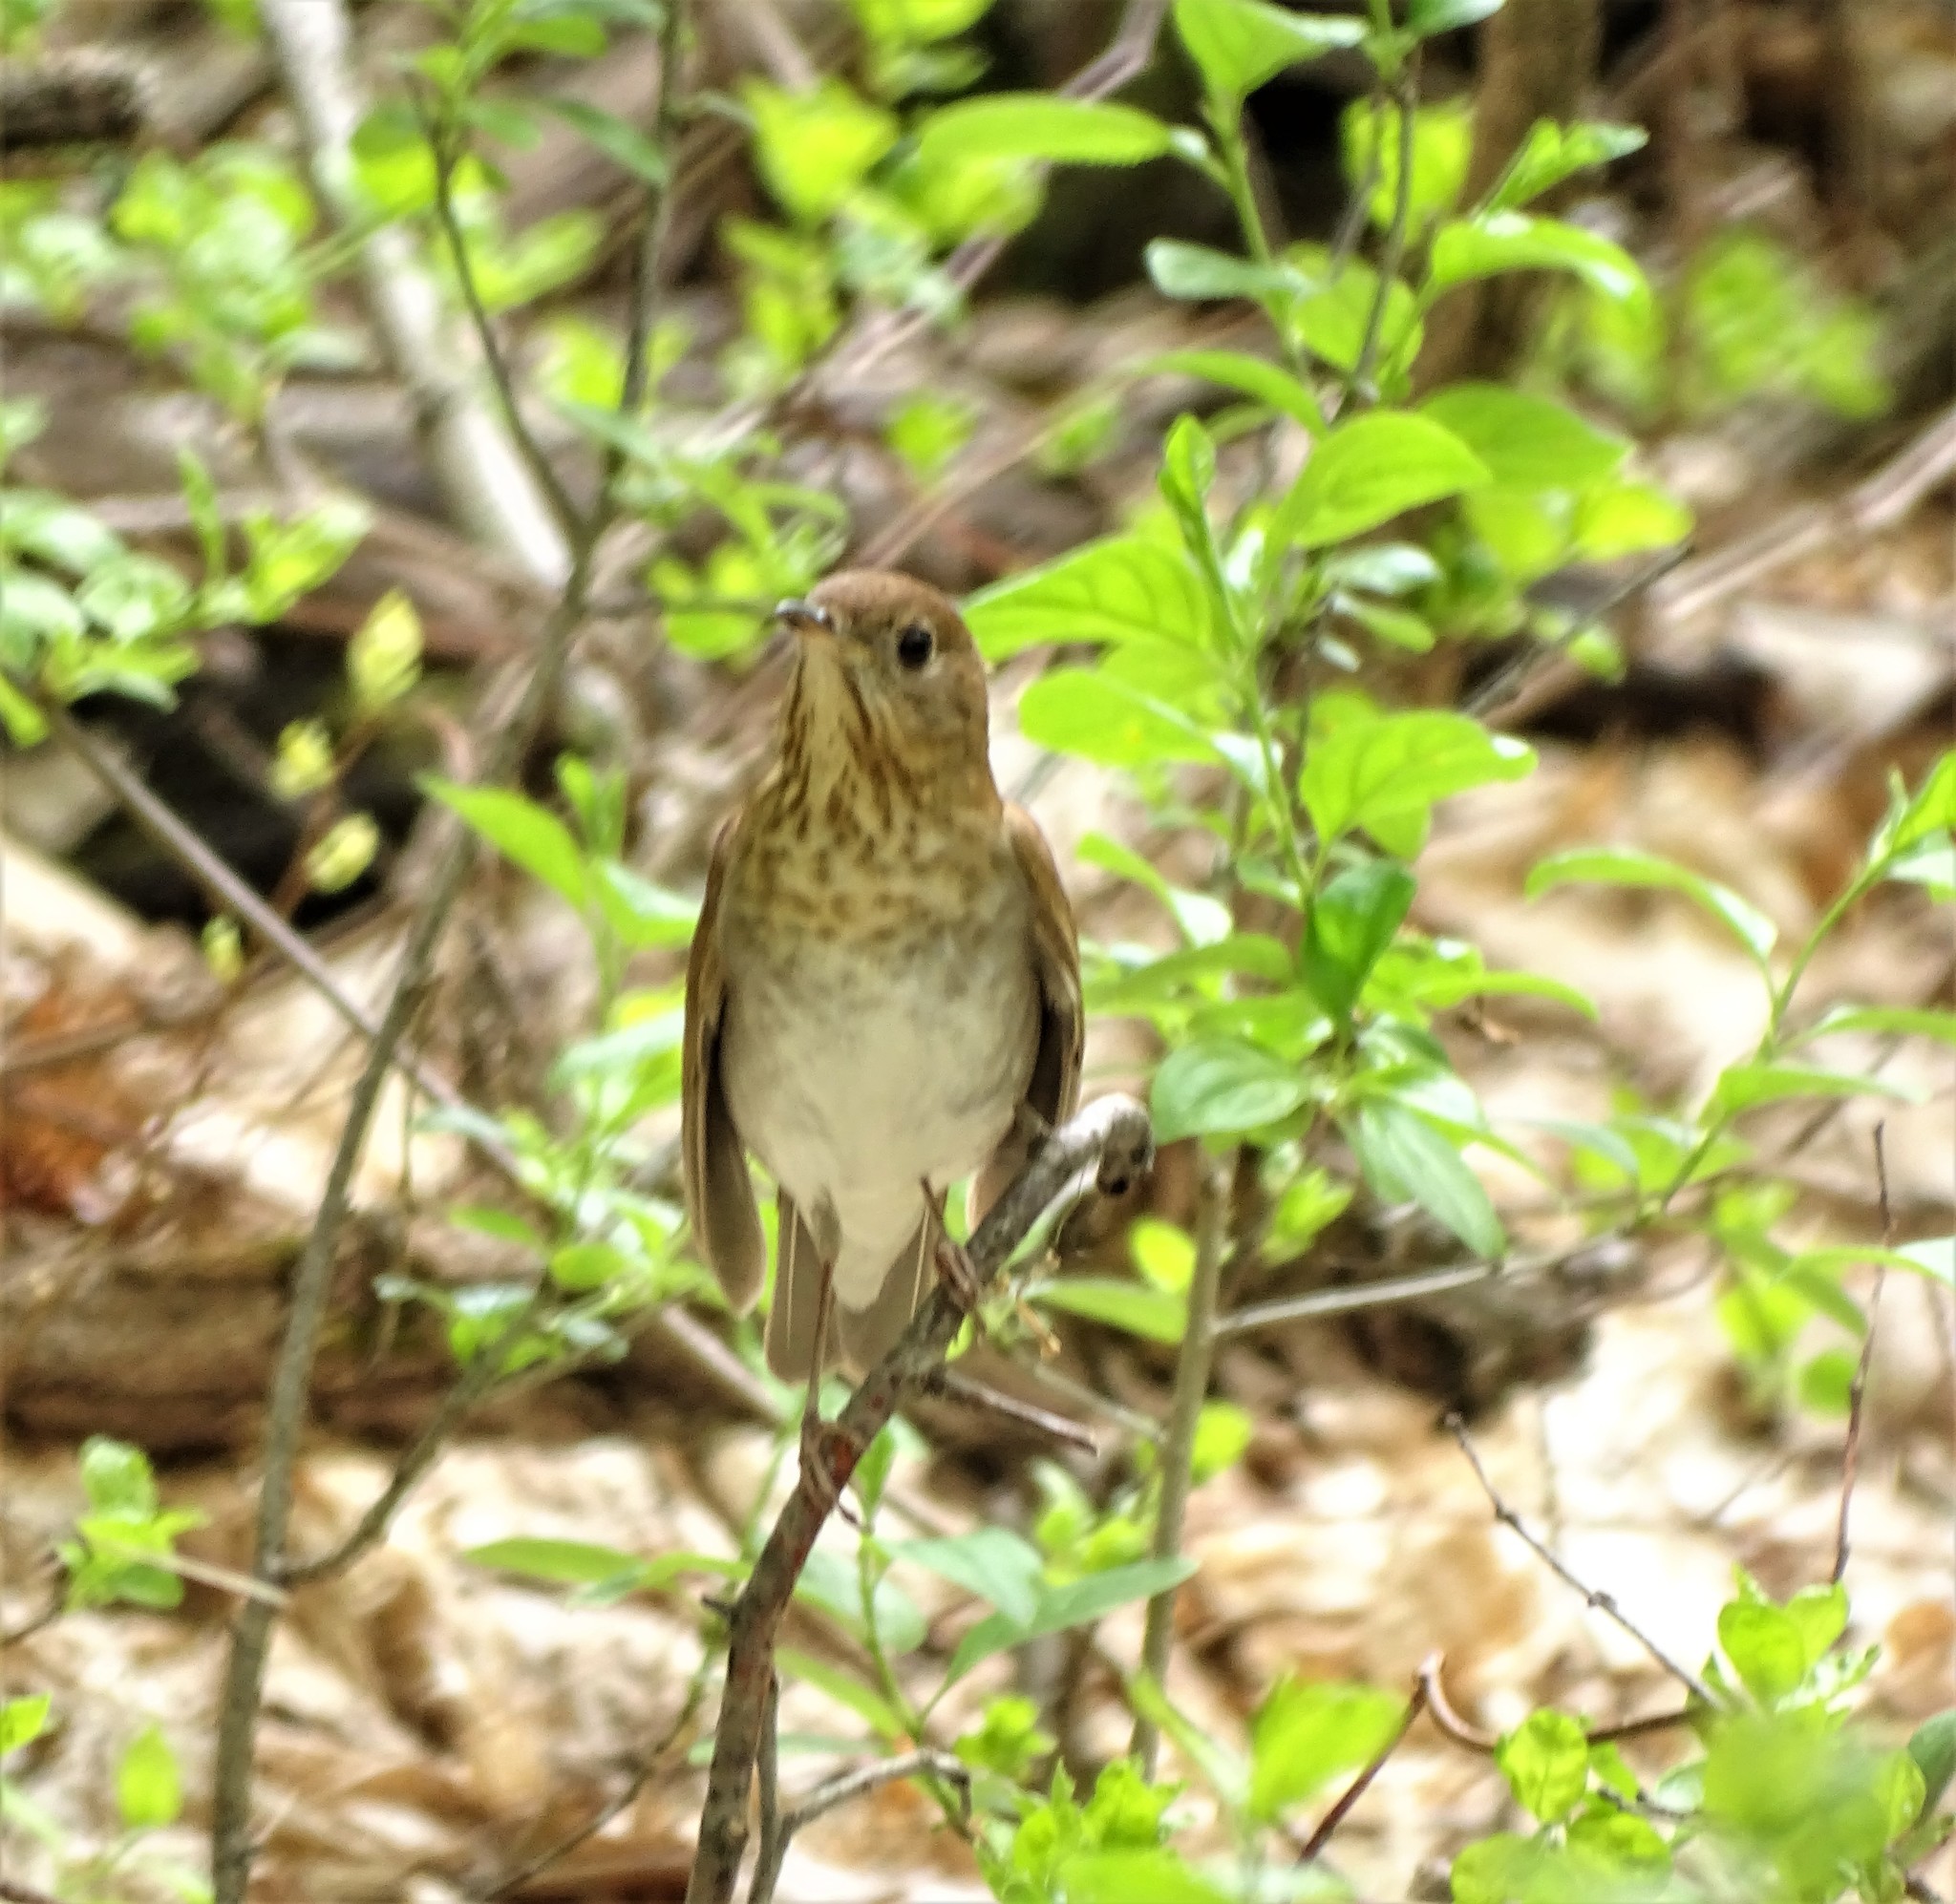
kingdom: Animalia
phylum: Chordata
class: Aves
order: Passeriformes
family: Turdidae
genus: Catharus
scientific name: Catharus fuscescens
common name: Veery
